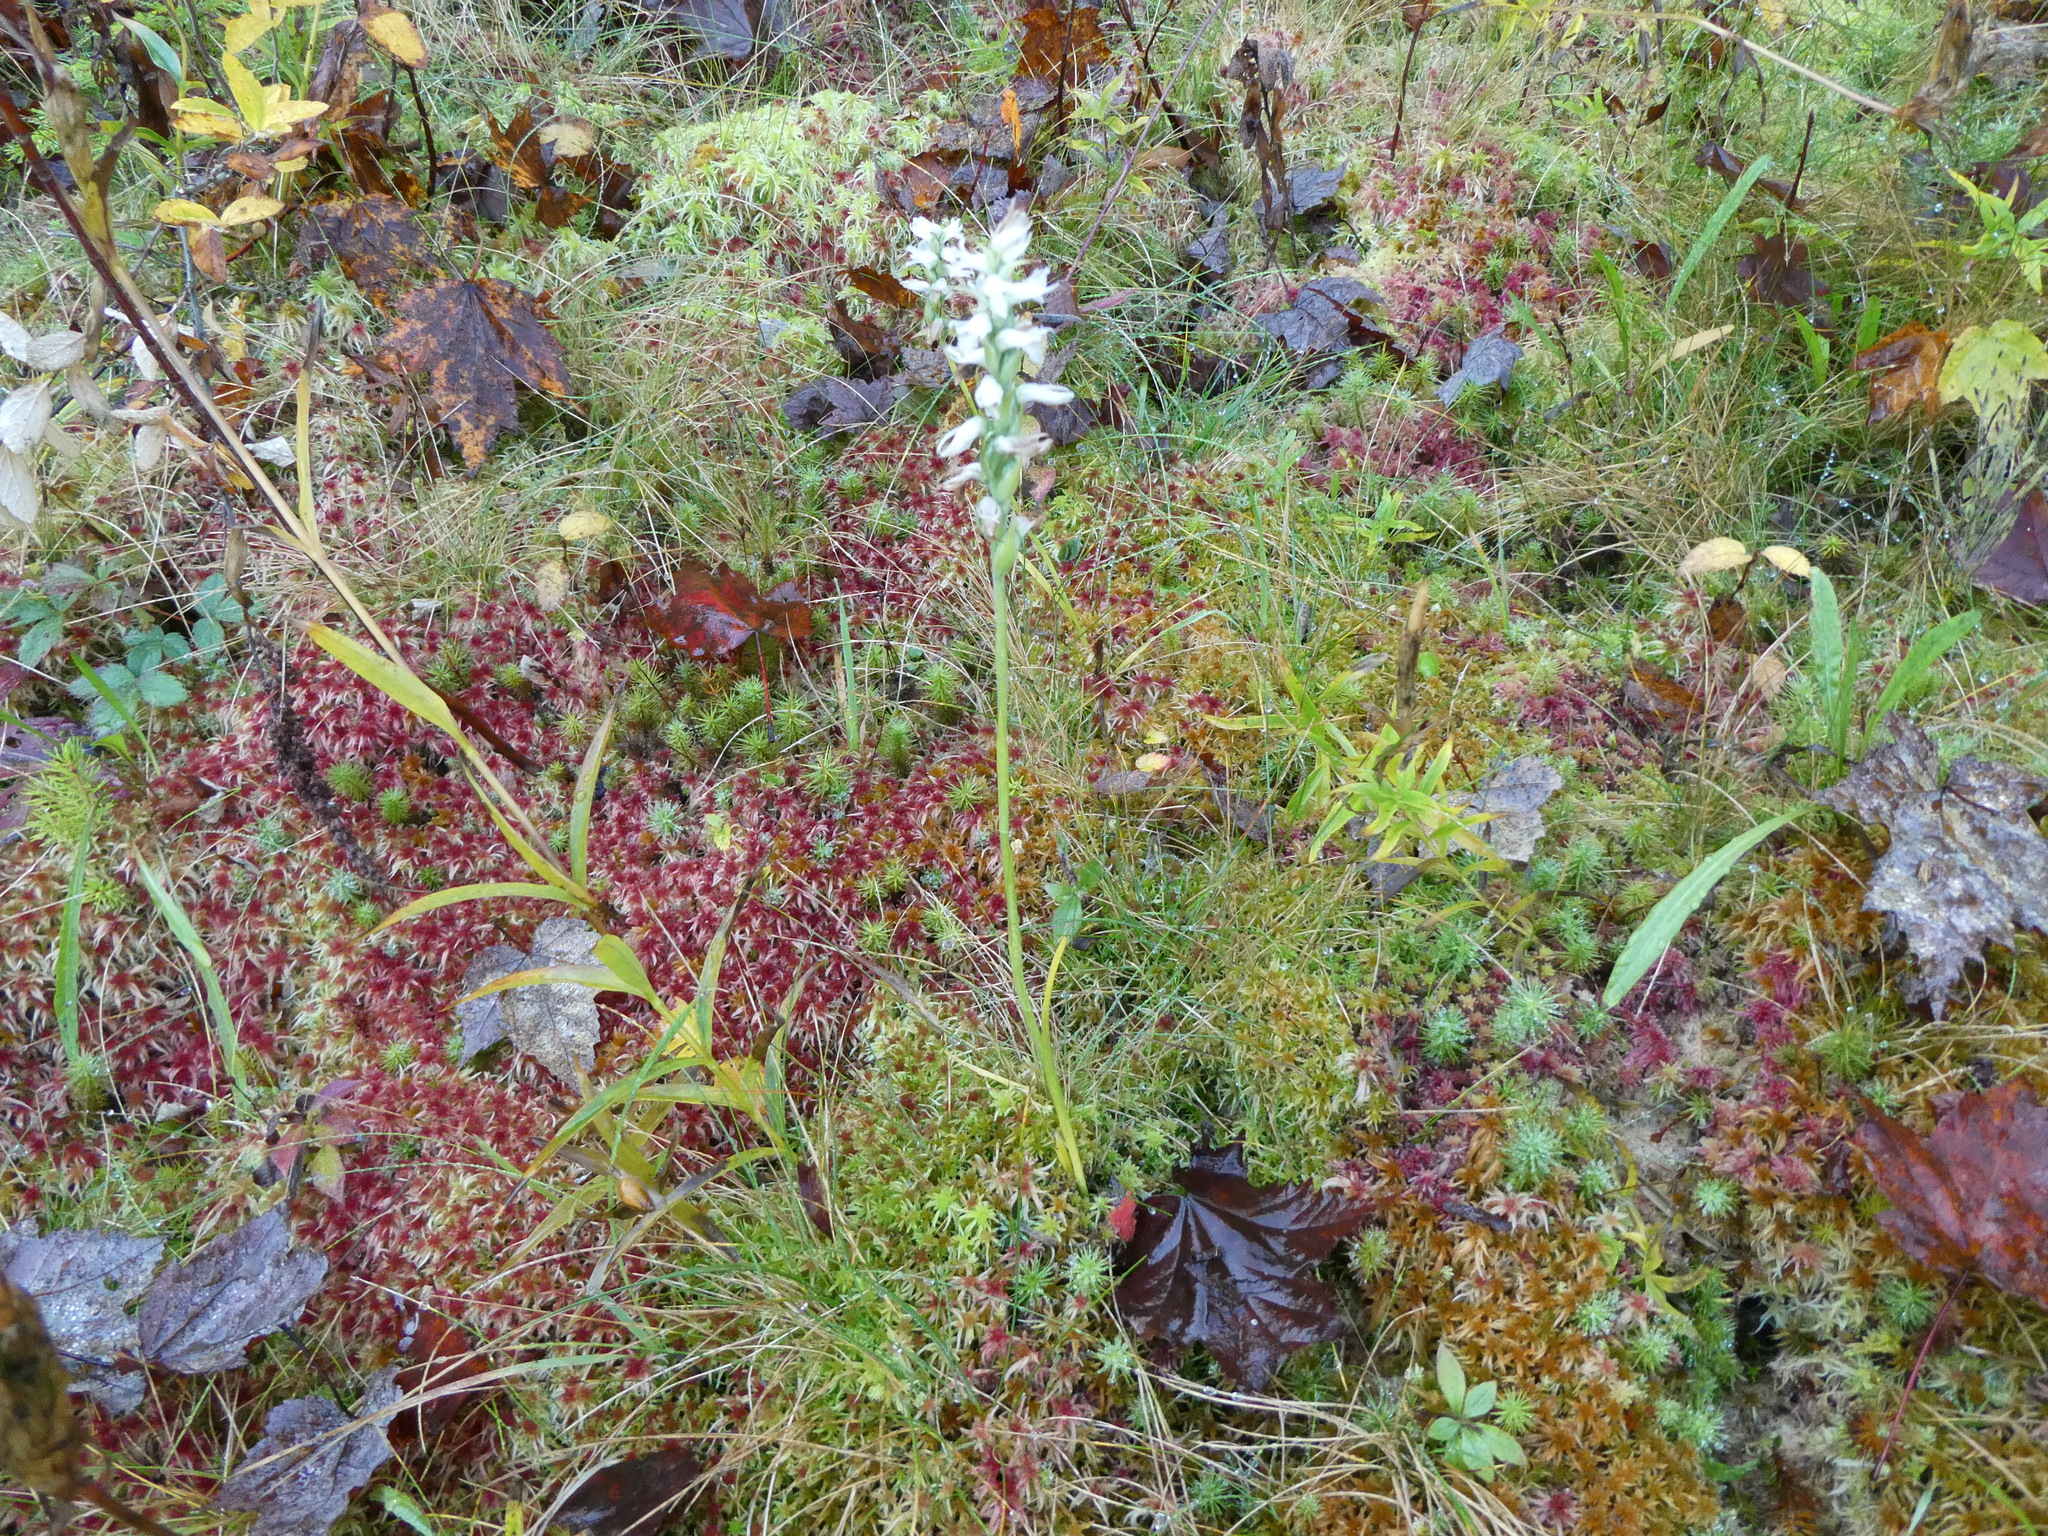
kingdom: Plantae
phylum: Tracheophyta
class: Liliopsida
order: Asparagales
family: Orchidaceae
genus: Spiranthes
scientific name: Spiranthes incurva
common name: Sphinx ladies'-tresses
